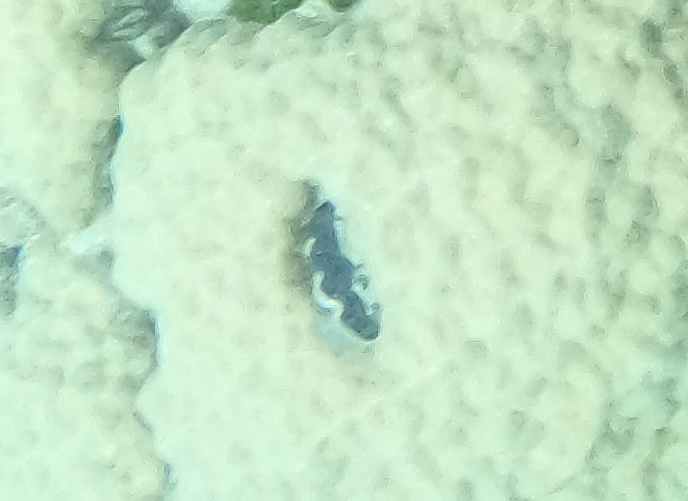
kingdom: Animalia
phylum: Mollusca
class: Bivalvia
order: Cardiida
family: Cardiidae
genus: Tridacna
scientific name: Tridacna crocea
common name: Boring clam
